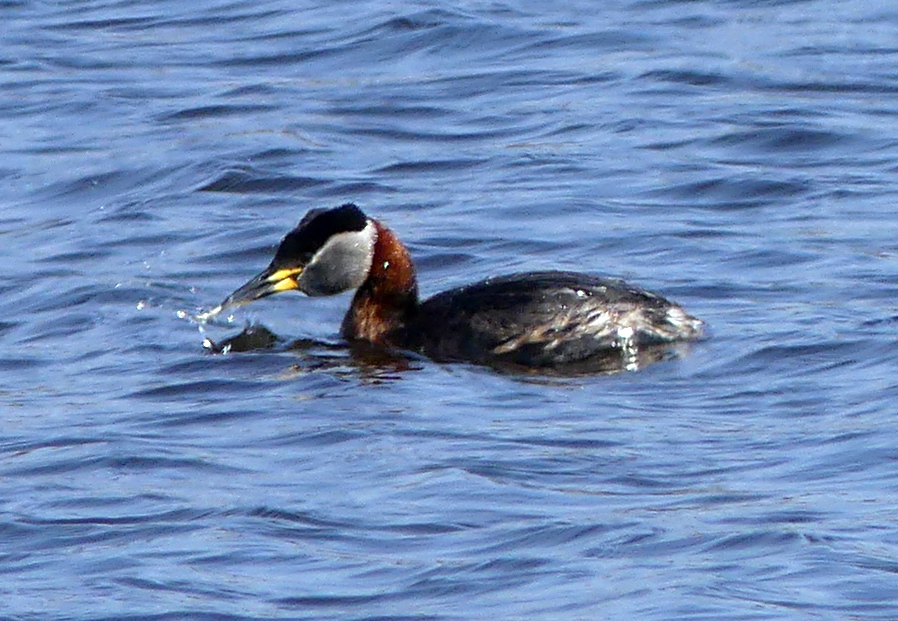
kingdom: Animalia
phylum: Chordata
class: Aves
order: Podicipediformes
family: Podicipedidae
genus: Podiceps
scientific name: Podiceps grisegena
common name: Red-necked grebe
